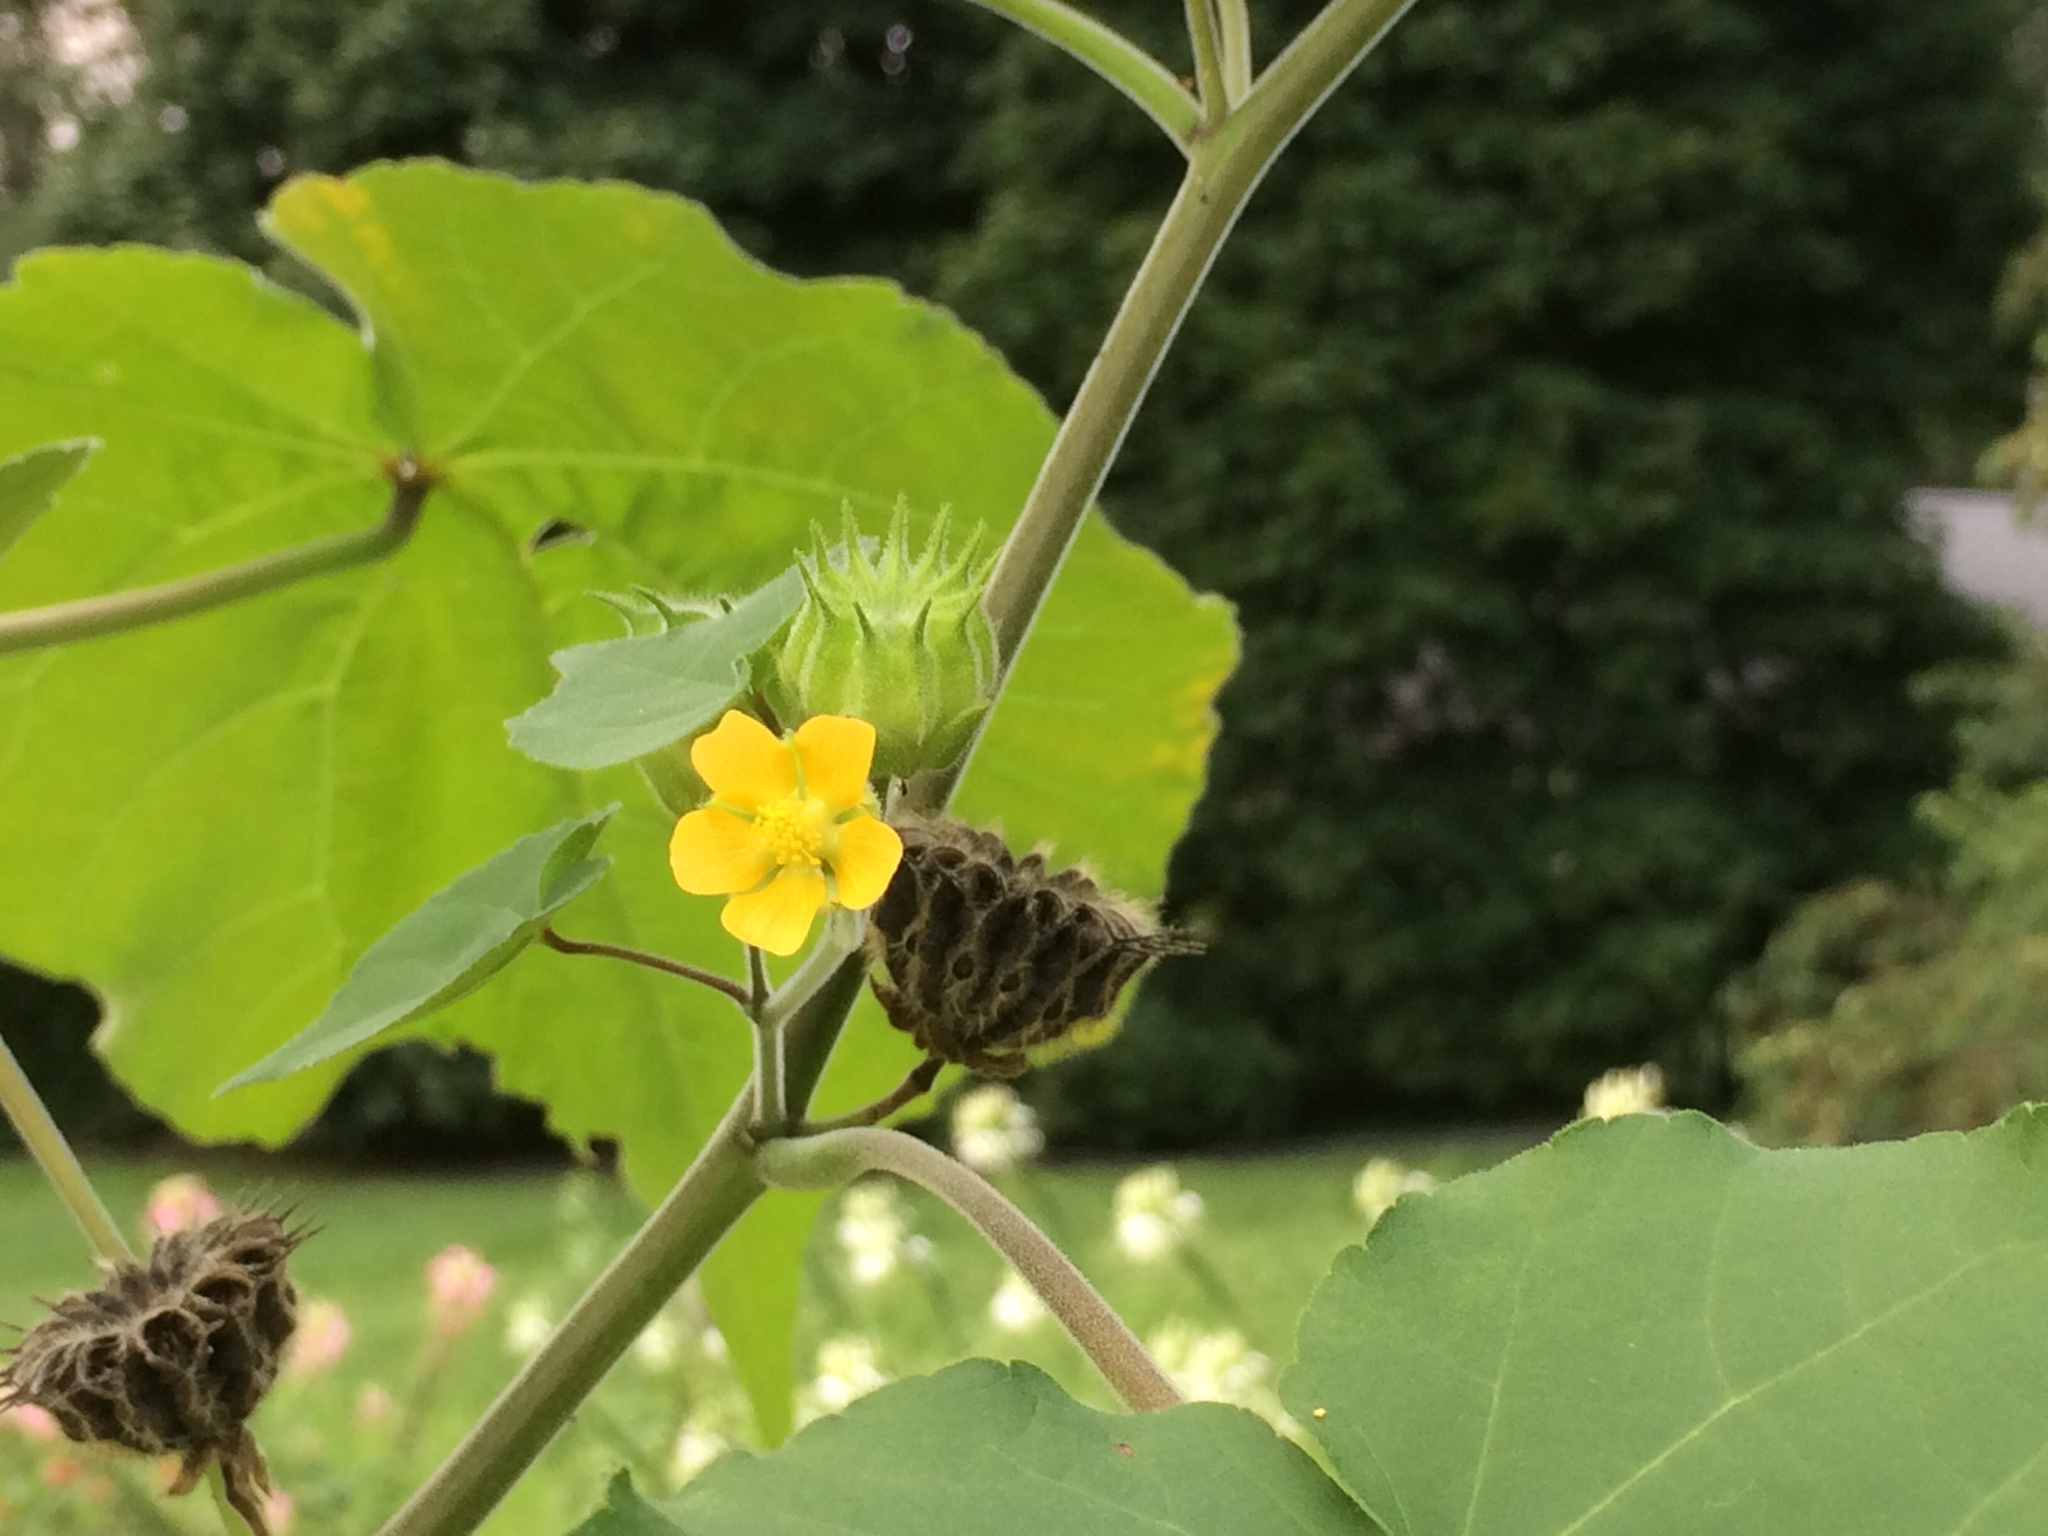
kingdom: Plantae
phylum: Tracheophyta
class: Magnoliopsida
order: Malvales
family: Malvaceae
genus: Abutilon
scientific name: Abutilon theophrasti
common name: Velvetleaf
